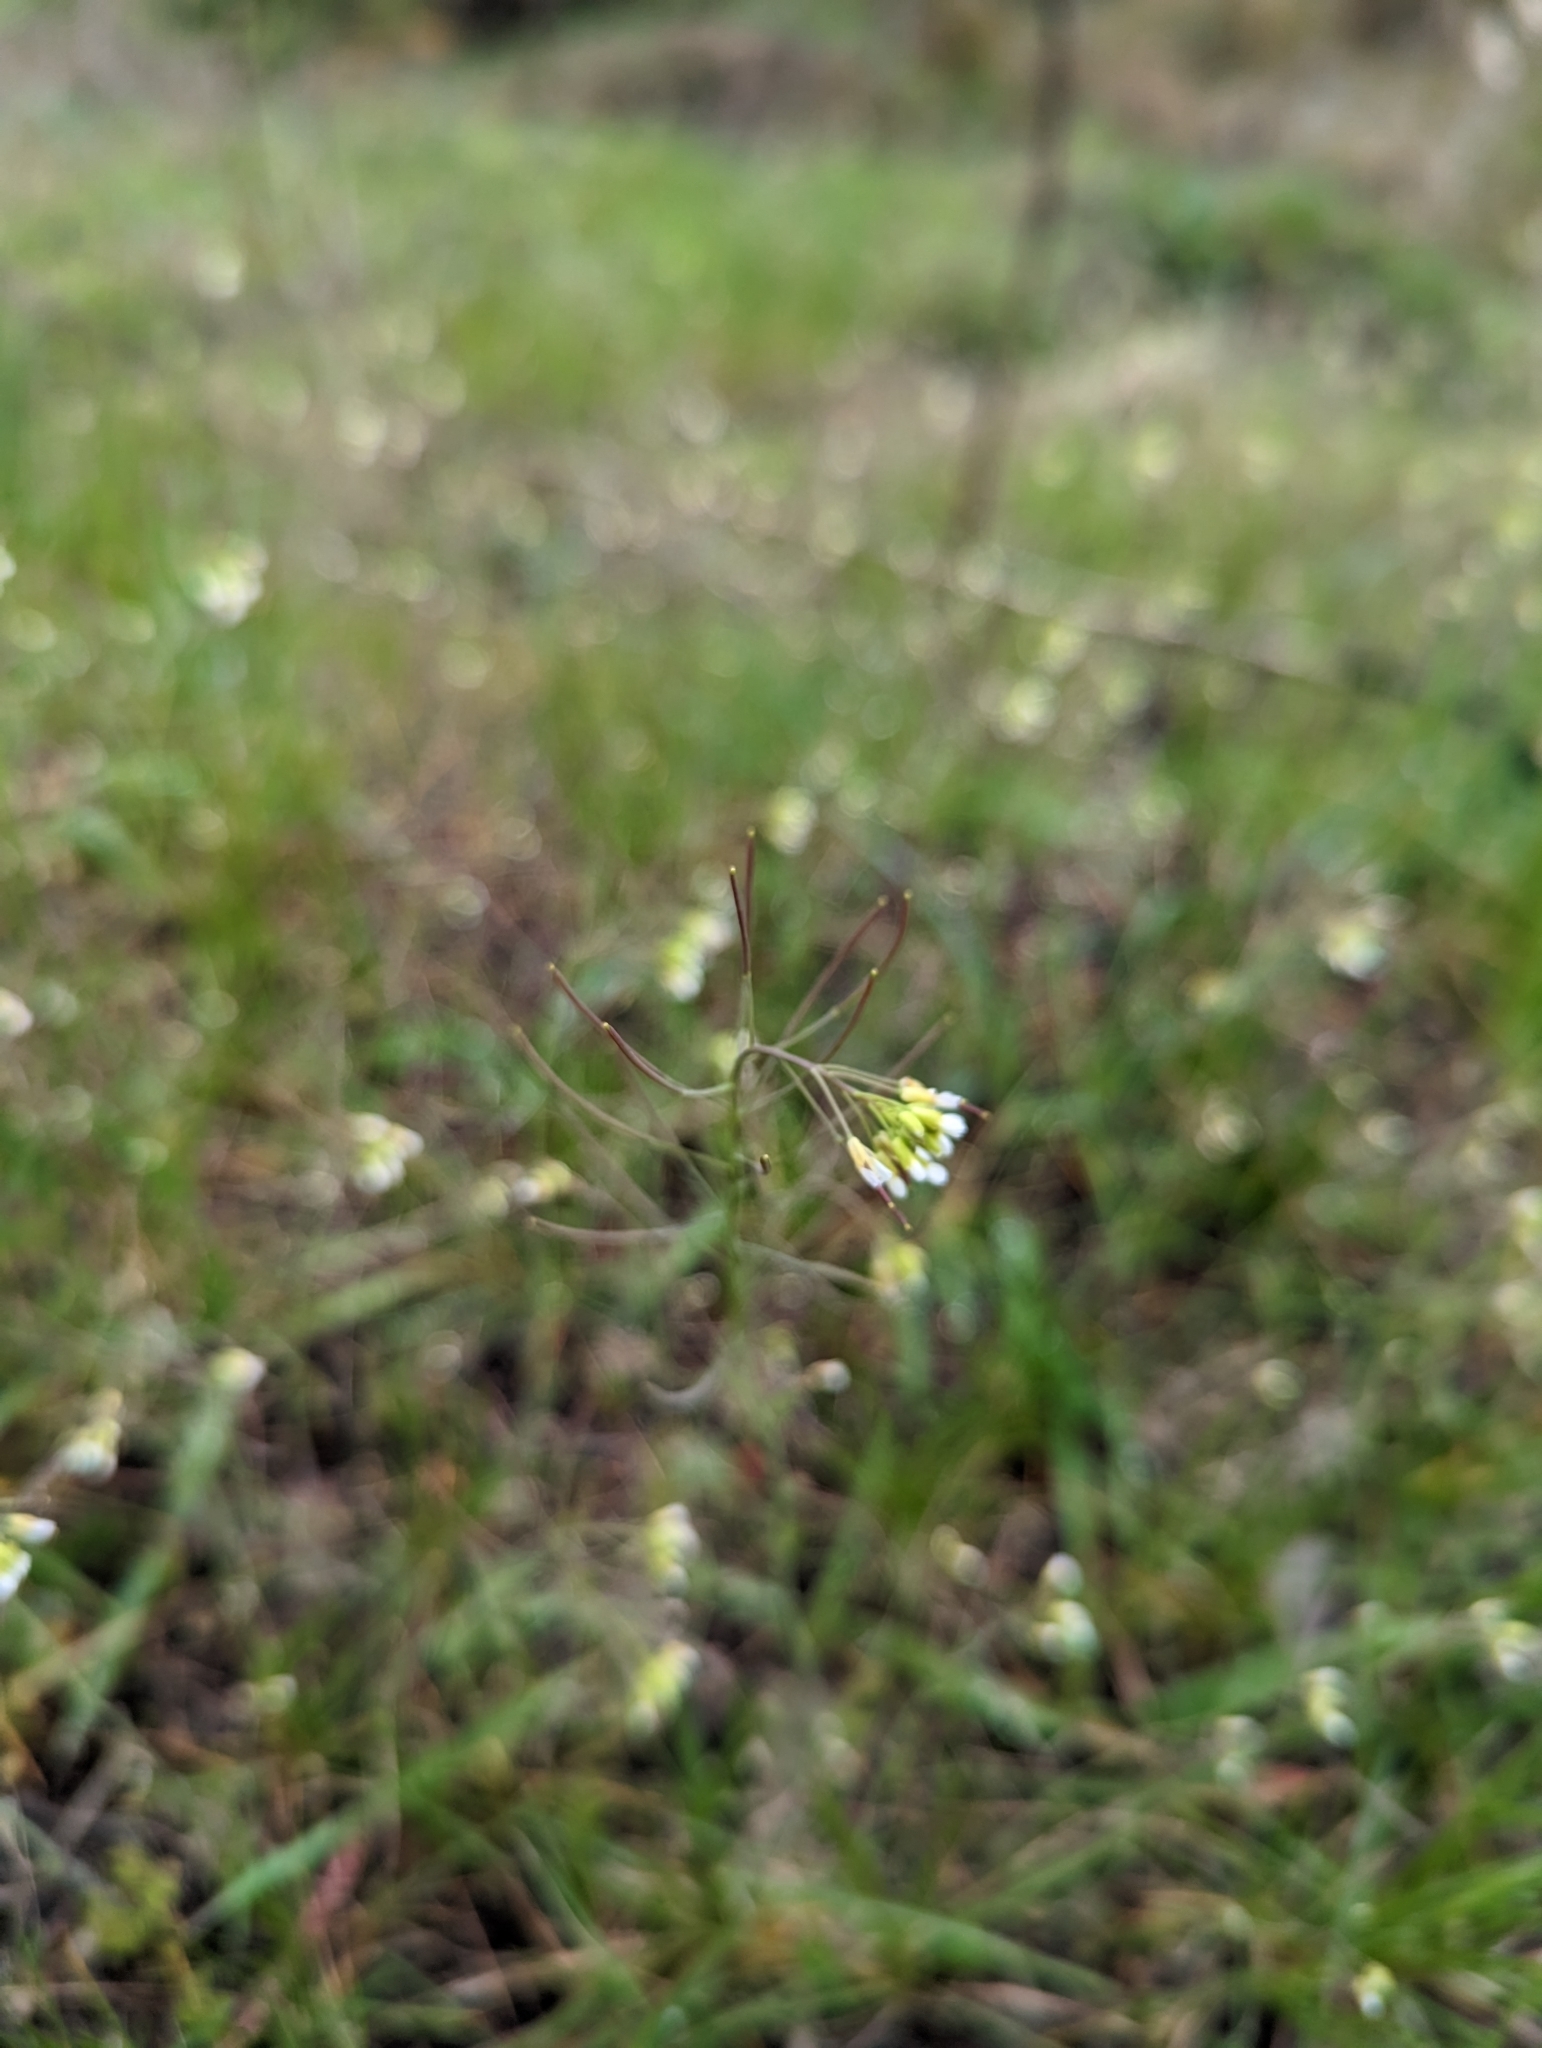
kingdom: Plantae
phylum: Tracheophyta
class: Magnoliopsida
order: Brassicales
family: Brassicaceae
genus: Arabidopsis
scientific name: Arabidopsis thaliana
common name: Thale cress
